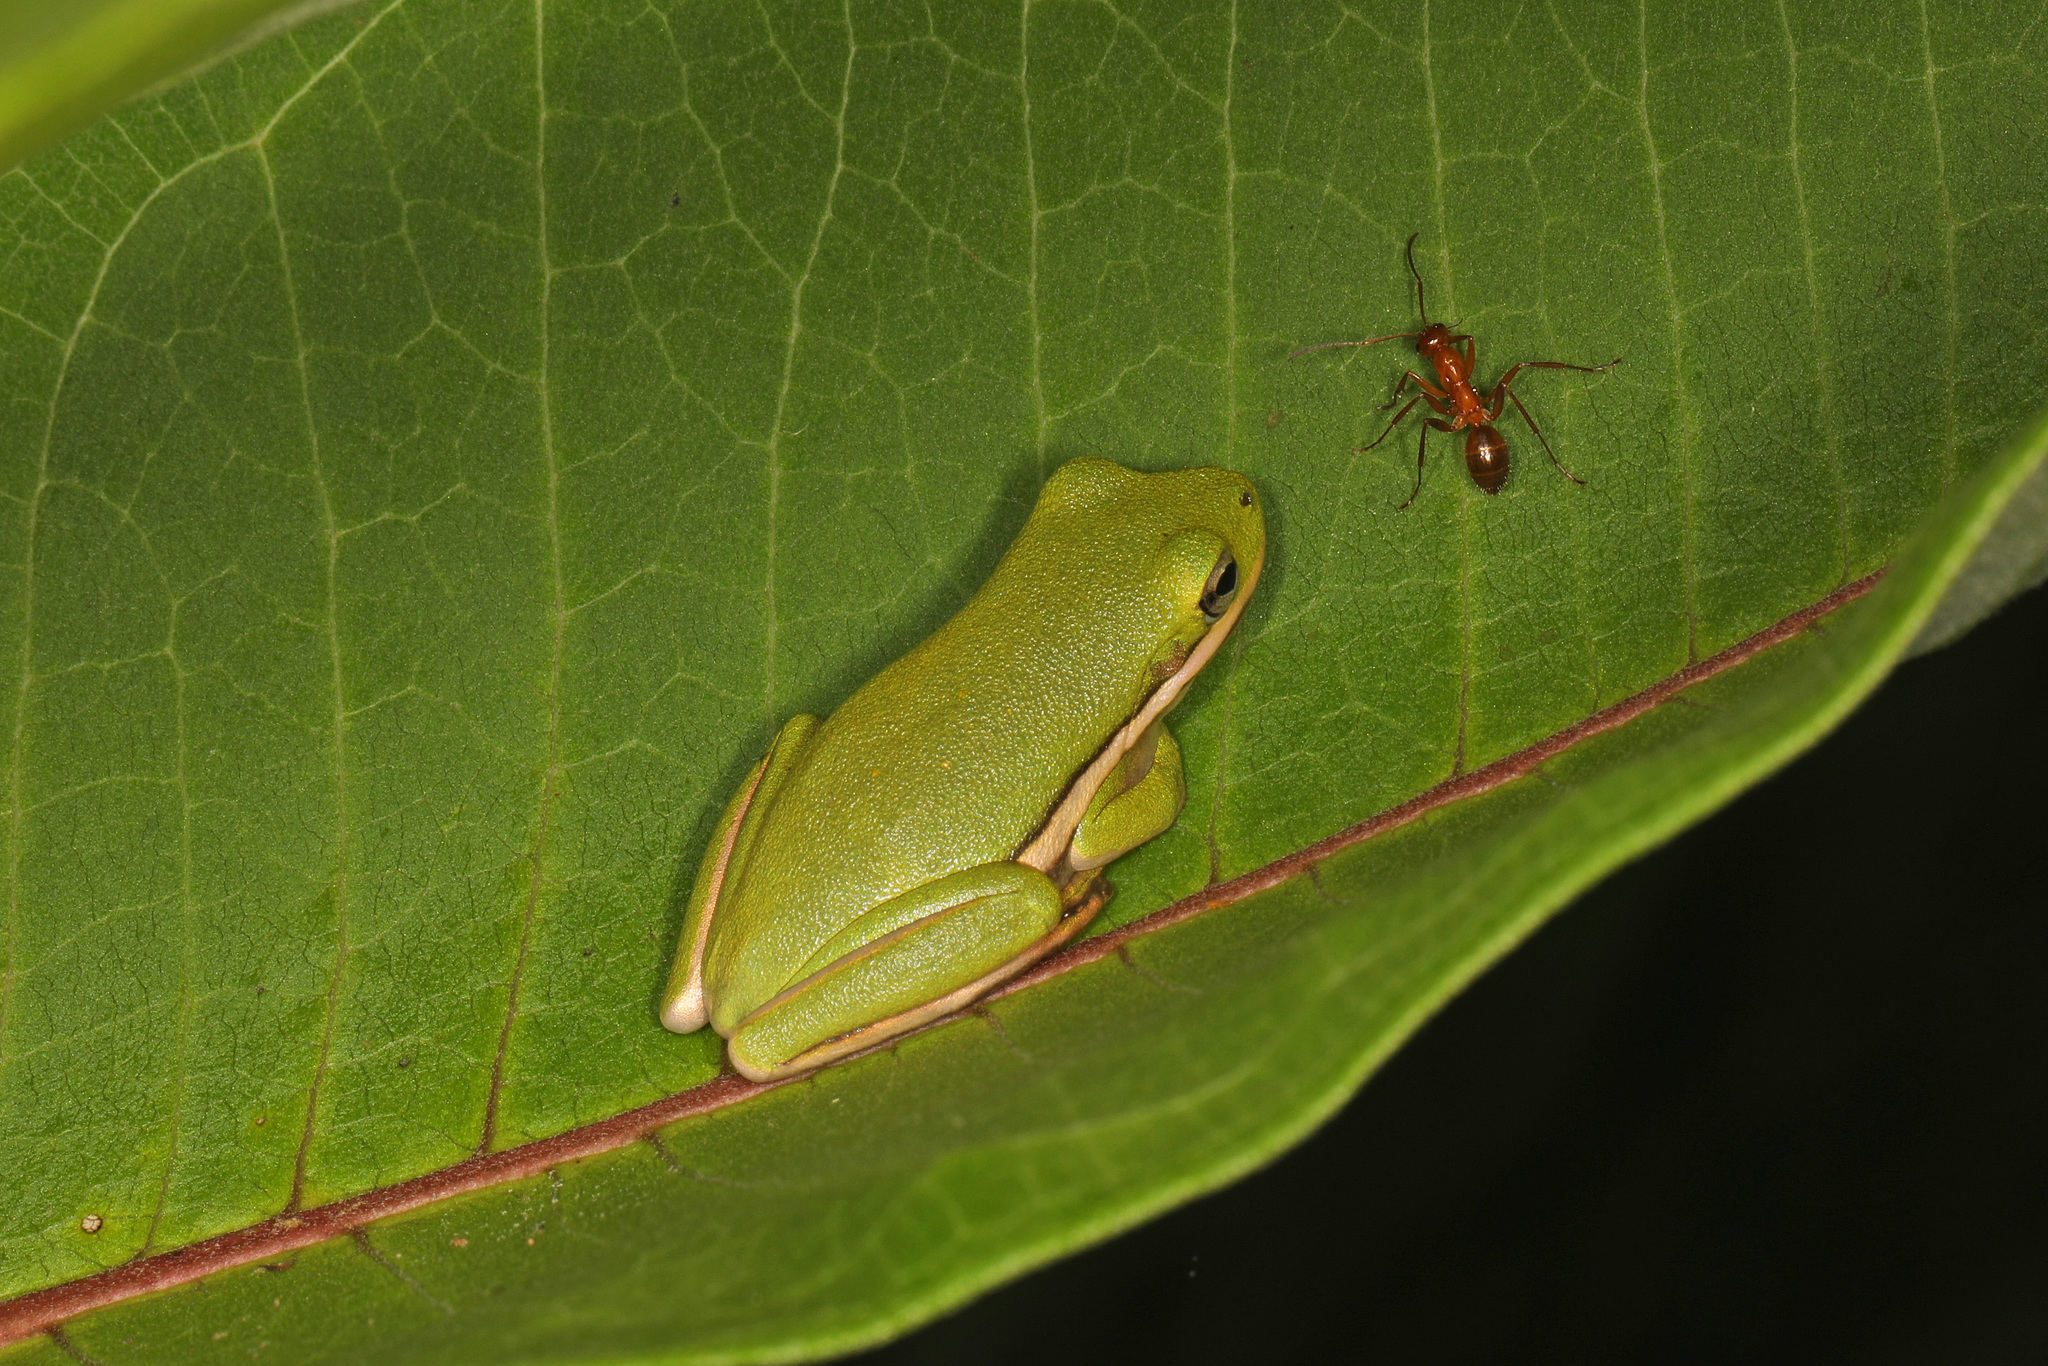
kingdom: Animalia
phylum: Chordata
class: Amphibia
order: Anura
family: Hylidae
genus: Dryophytes
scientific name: Dryophytes cinereus
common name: Green treefrog
